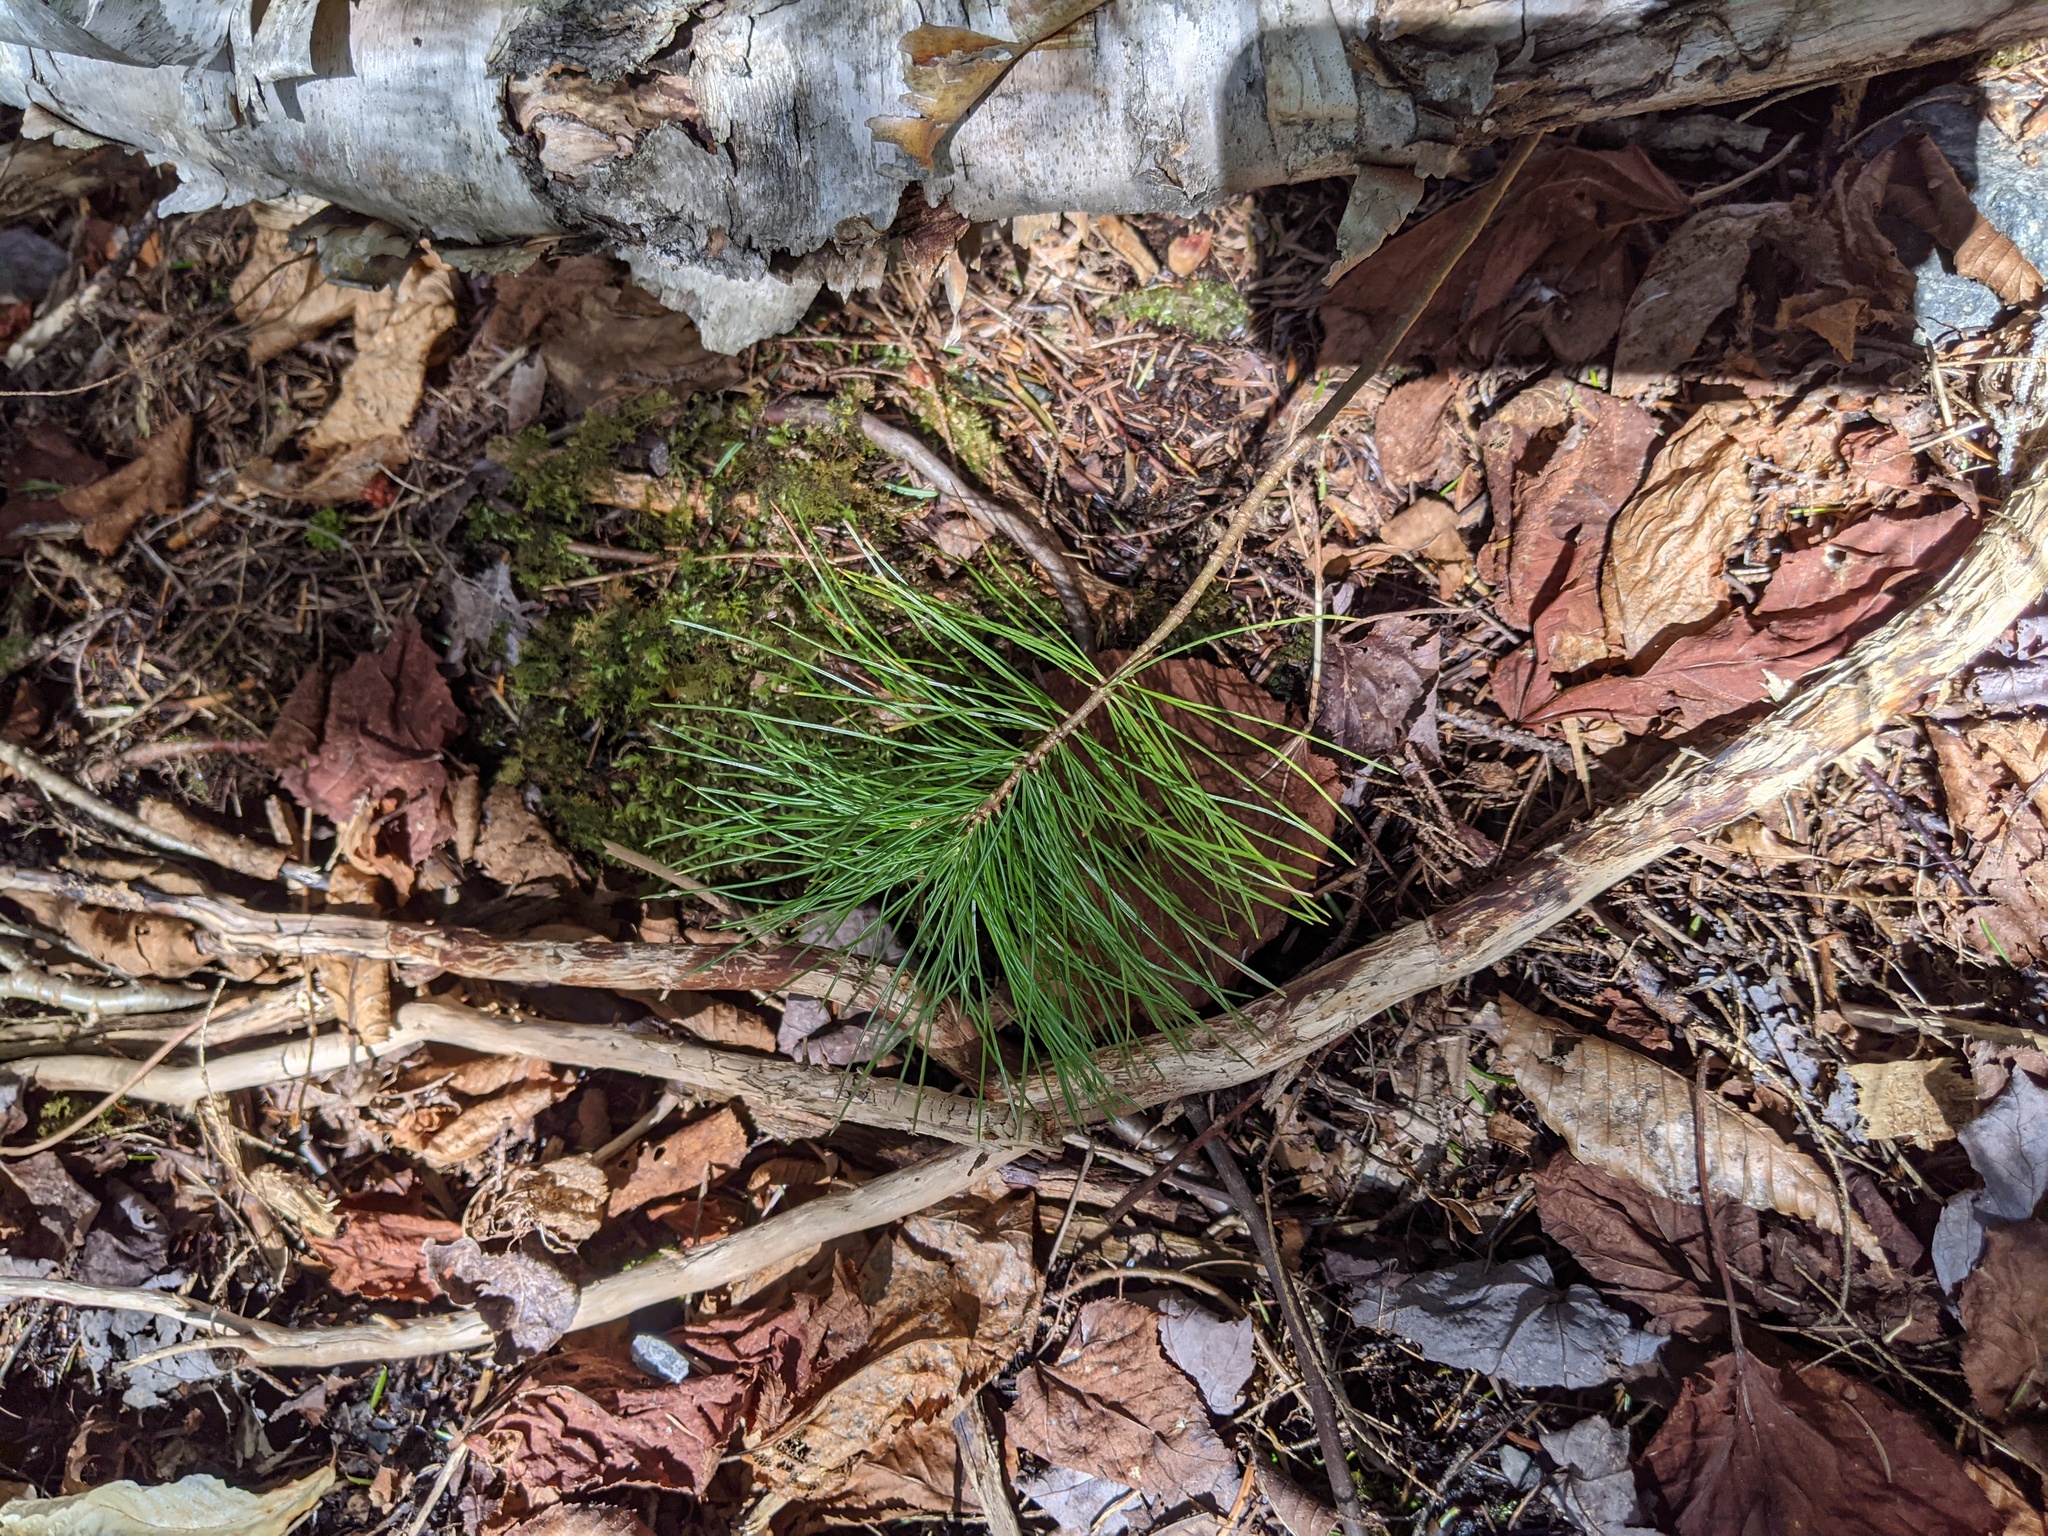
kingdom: Plantae
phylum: Tracheophyta
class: Pinopsida
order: Pinales
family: Pinaceae
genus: Pinus
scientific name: Pinus strobus
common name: Weymouth pine
